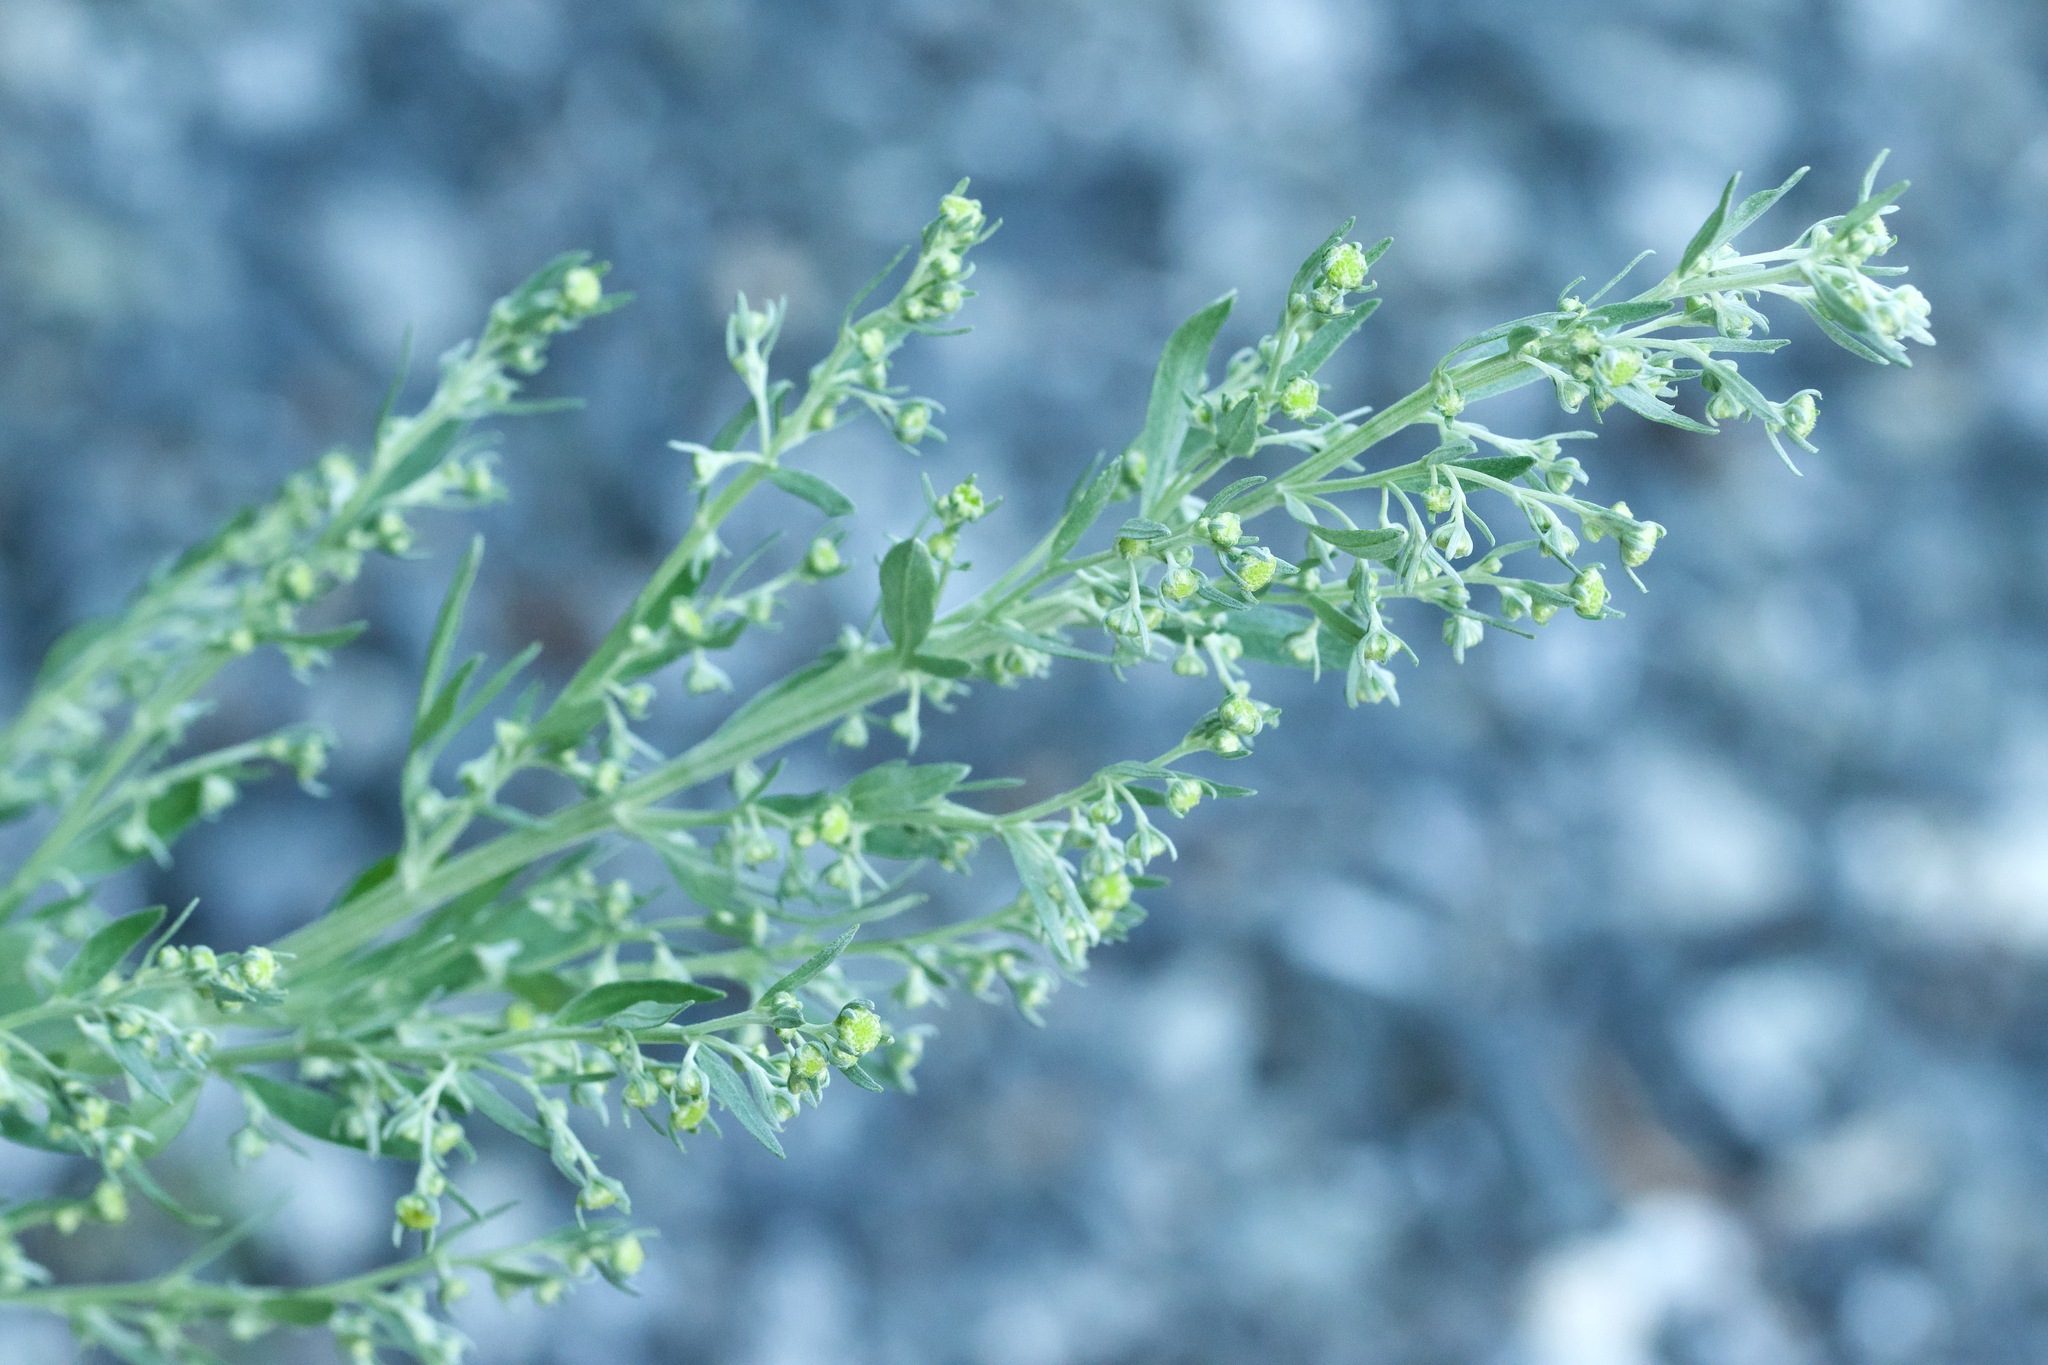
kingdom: Plantae
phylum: Tracheophyta
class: Magnoliopsida
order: Asterales
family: Asteraceae
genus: Artemisia
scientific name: Artemisia absinthium
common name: Wormwood
